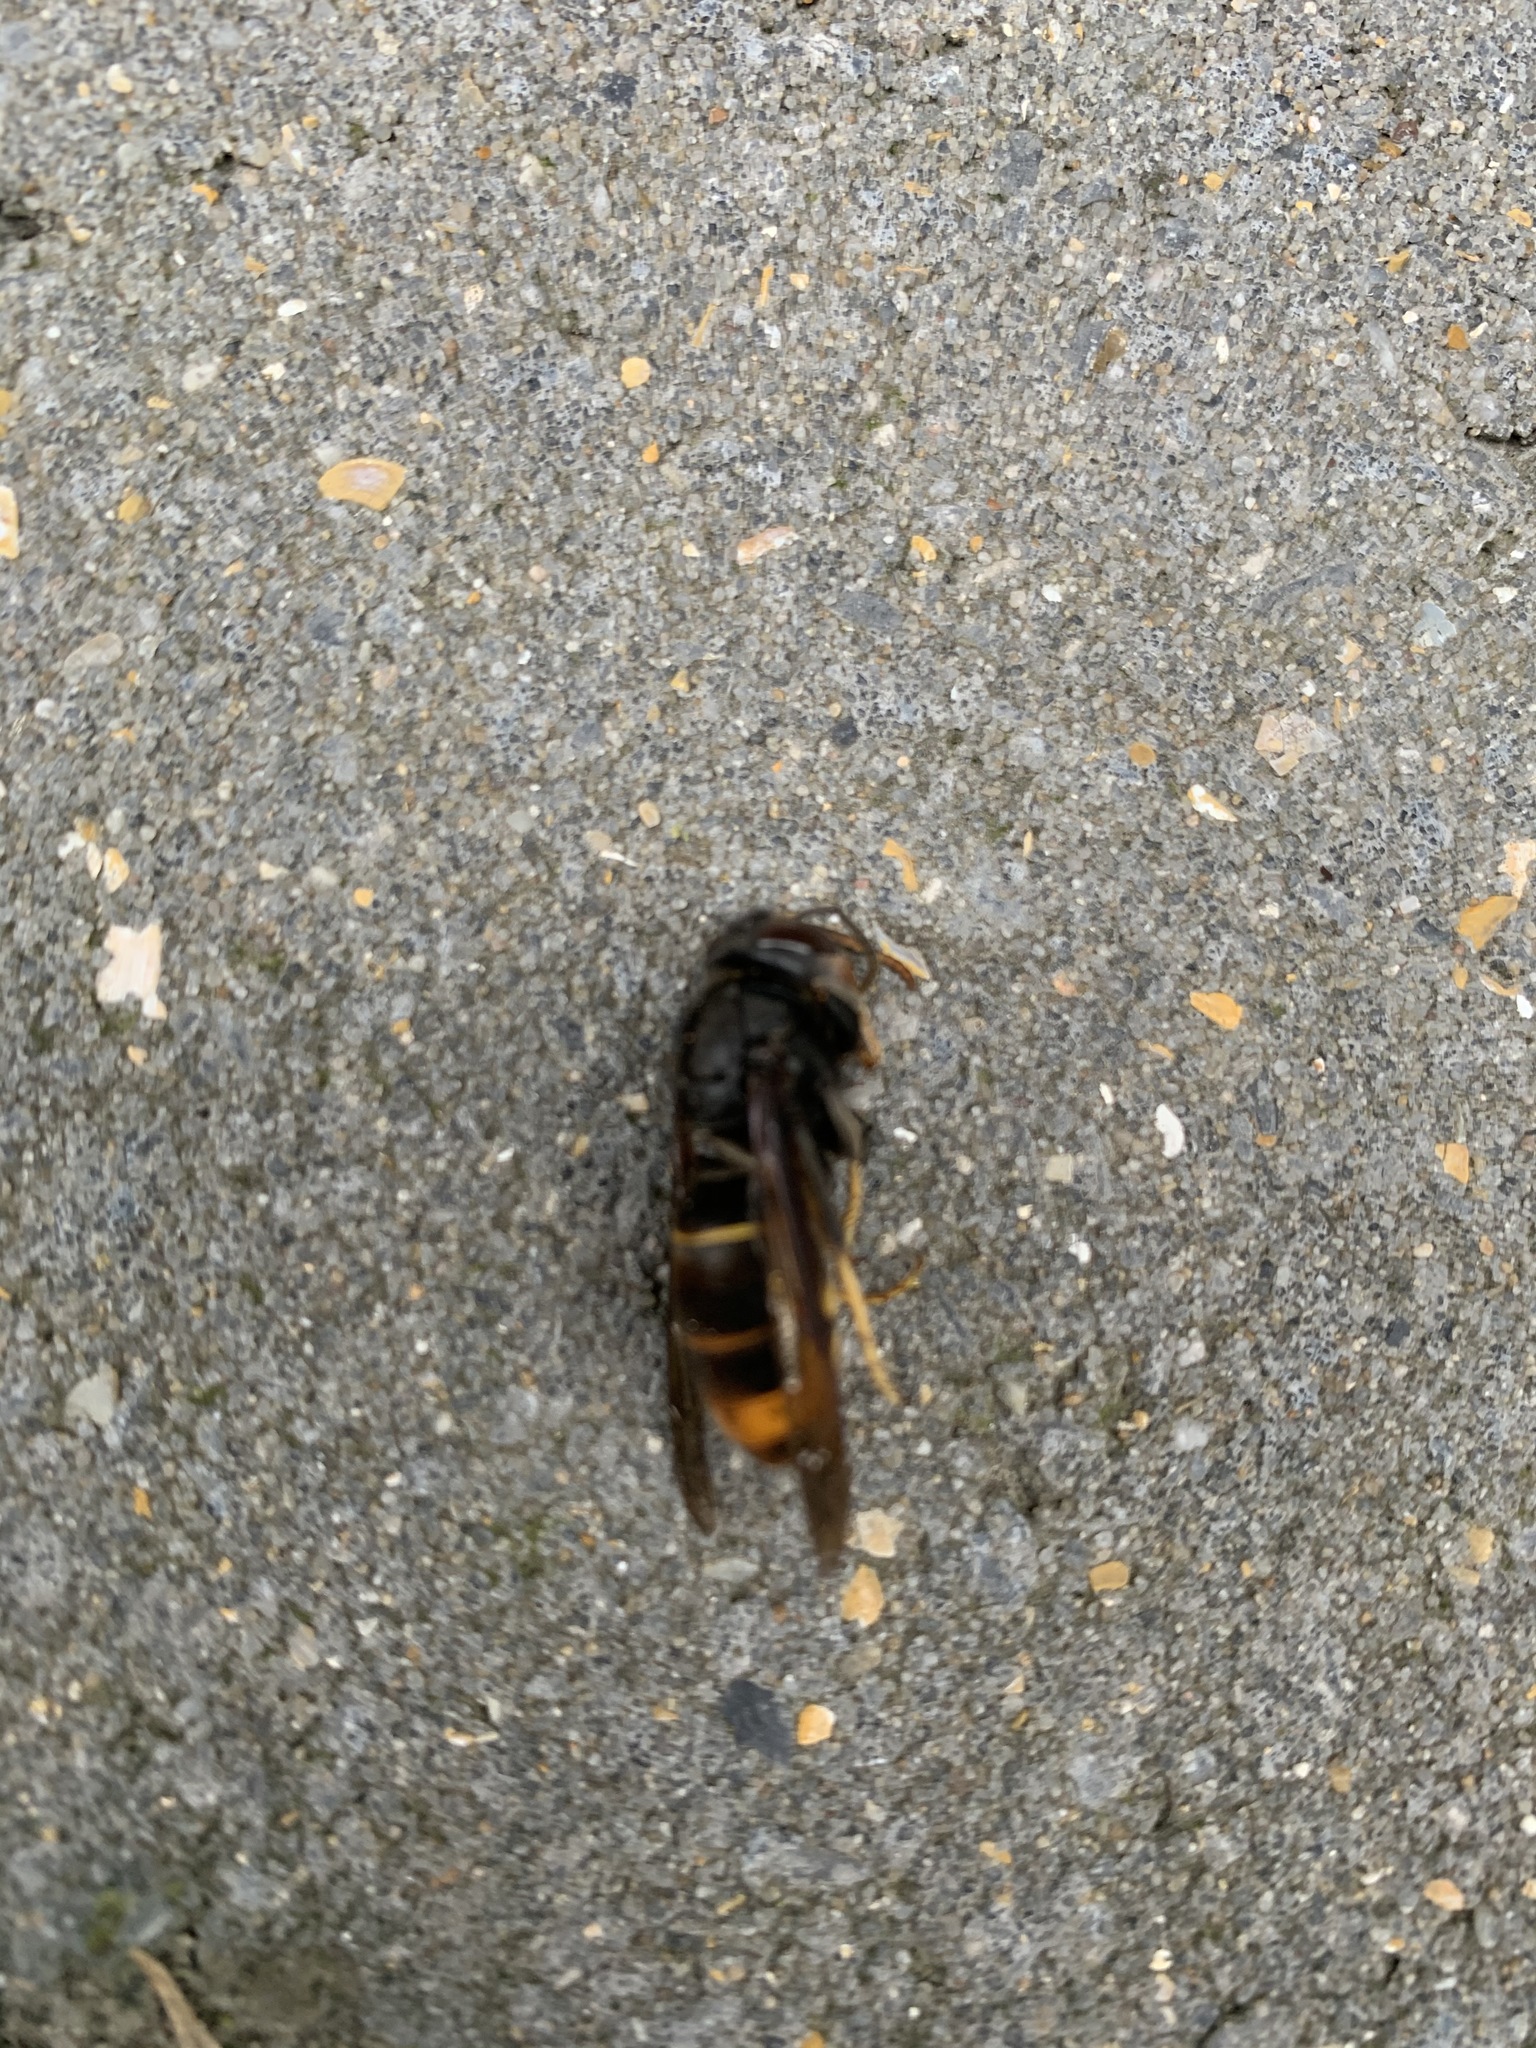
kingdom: Animalia
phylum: Arthropoda
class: Insecta
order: Hymenoptera
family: Vespidae
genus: Vespa
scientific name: Vespa velutina
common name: Asian hornet
